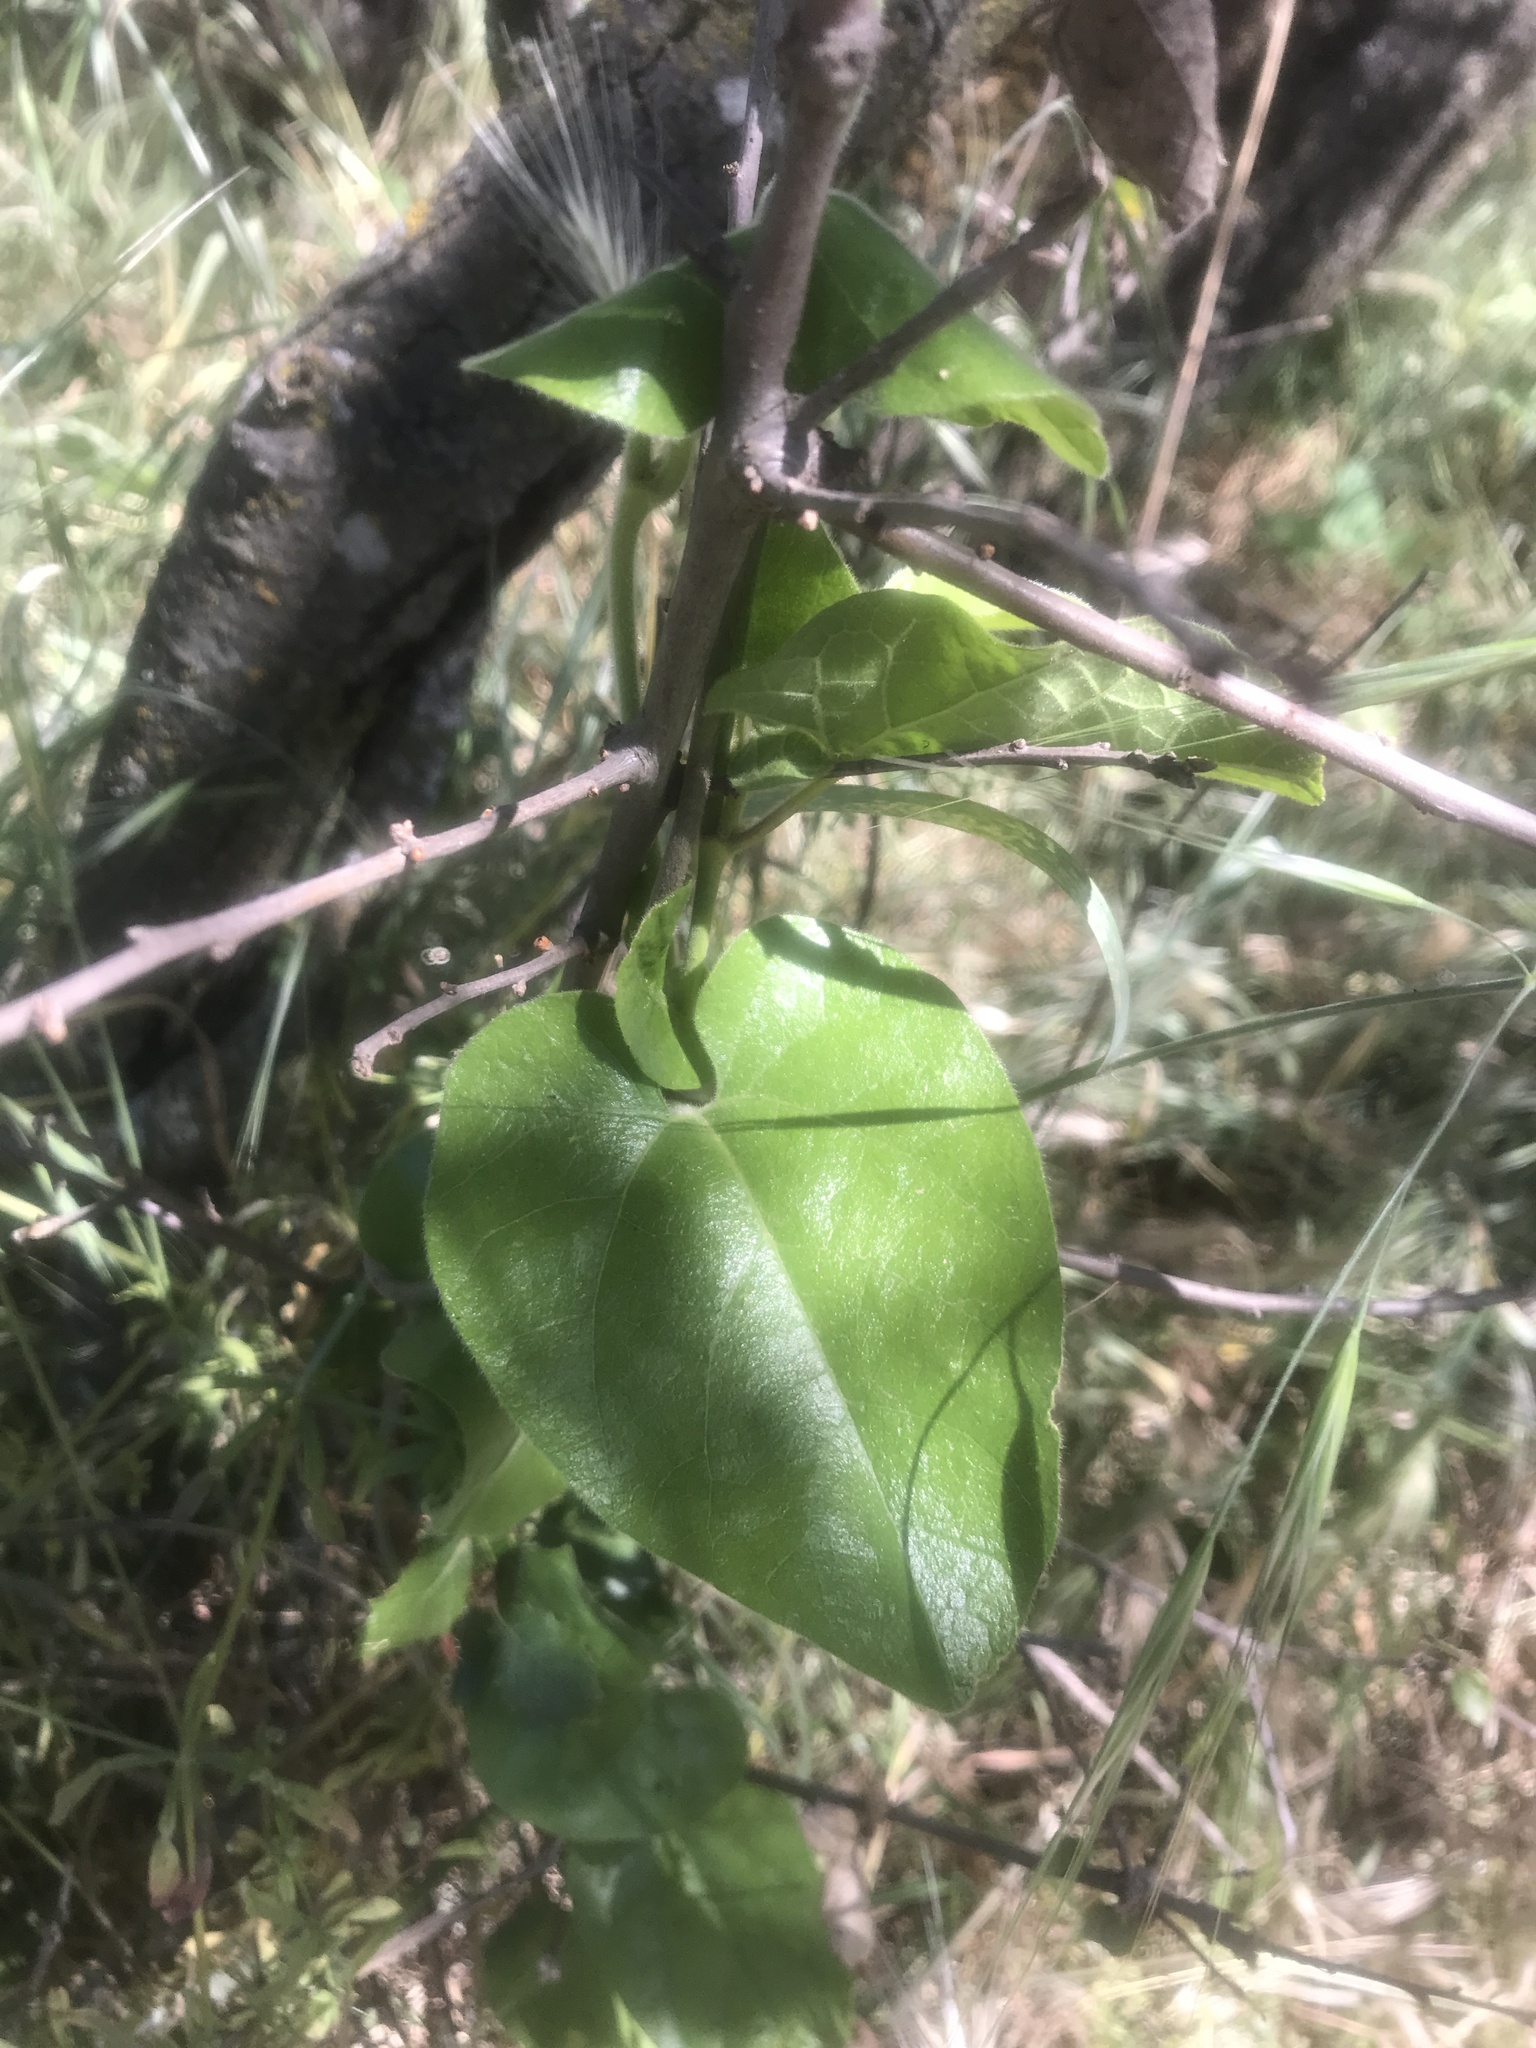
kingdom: Plantae
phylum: Tracheophyta
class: Magnoliopsida
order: Piperales
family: Aristolochiaceae
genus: Isotrema
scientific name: Isotrema californicum
